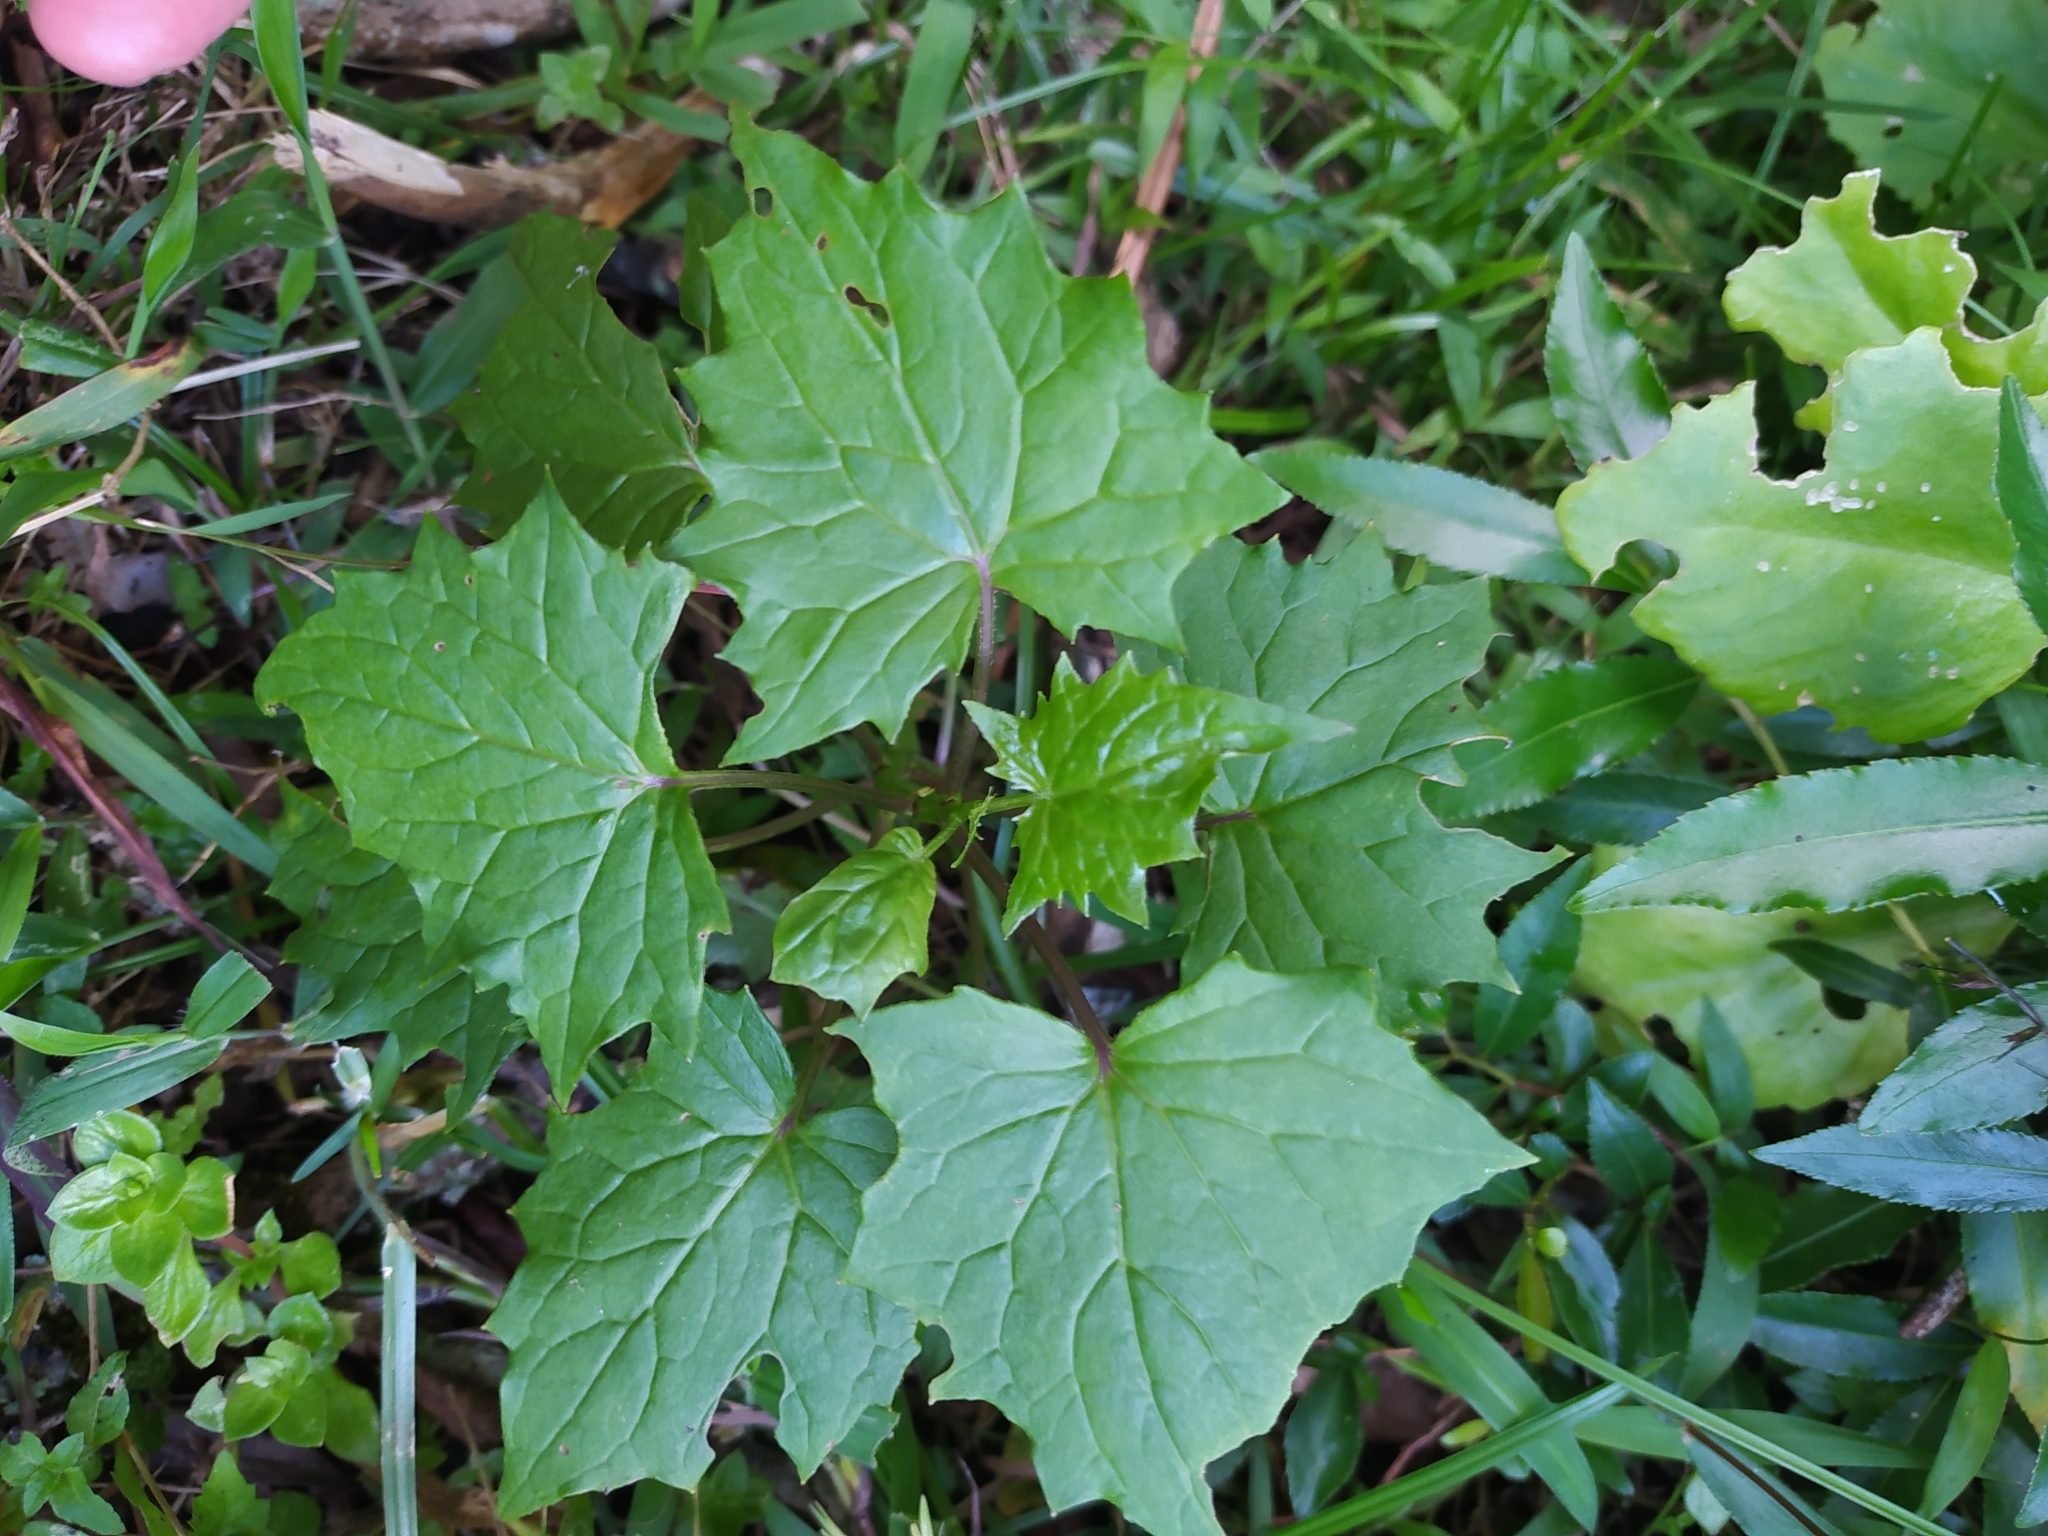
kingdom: Plantae
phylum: Tracheophyta
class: Magnoliopsida
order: Asterales
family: Asteraceae
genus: Senecio
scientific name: Senecio tamoides
